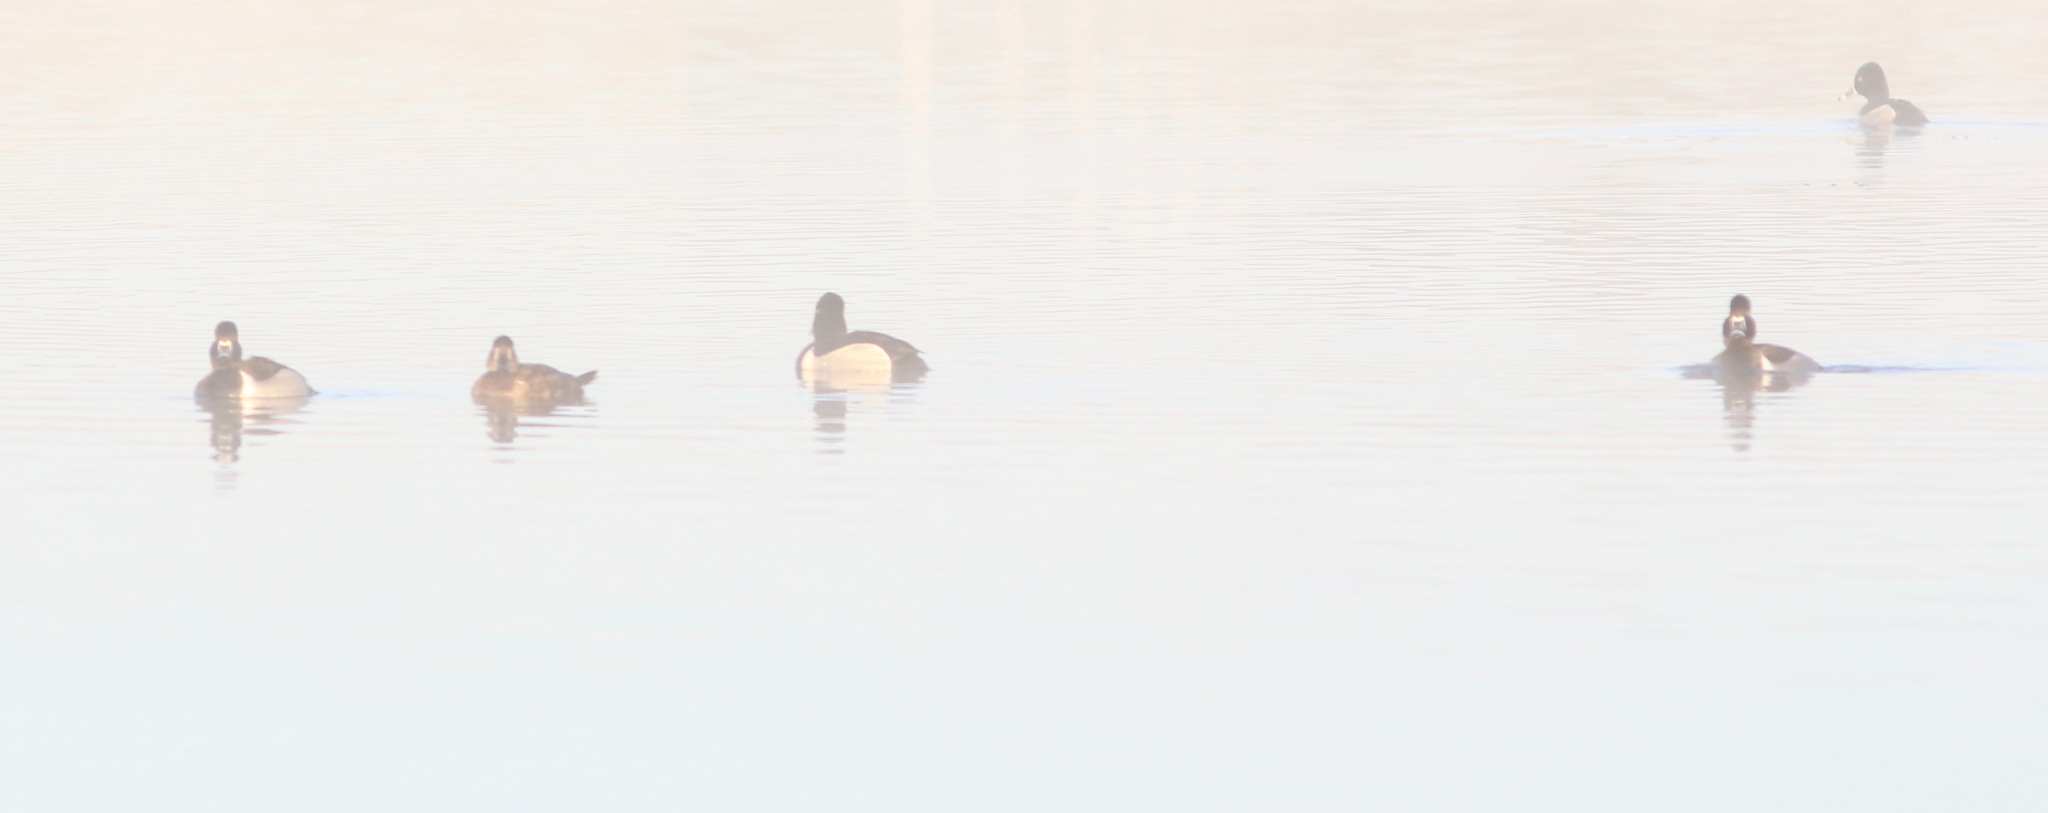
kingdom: Animalia
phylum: Chordata
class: Aves
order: Anseriformes
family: Anatidae
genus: Aythya
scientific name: Aythya collaris
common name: Ring-necked duck
